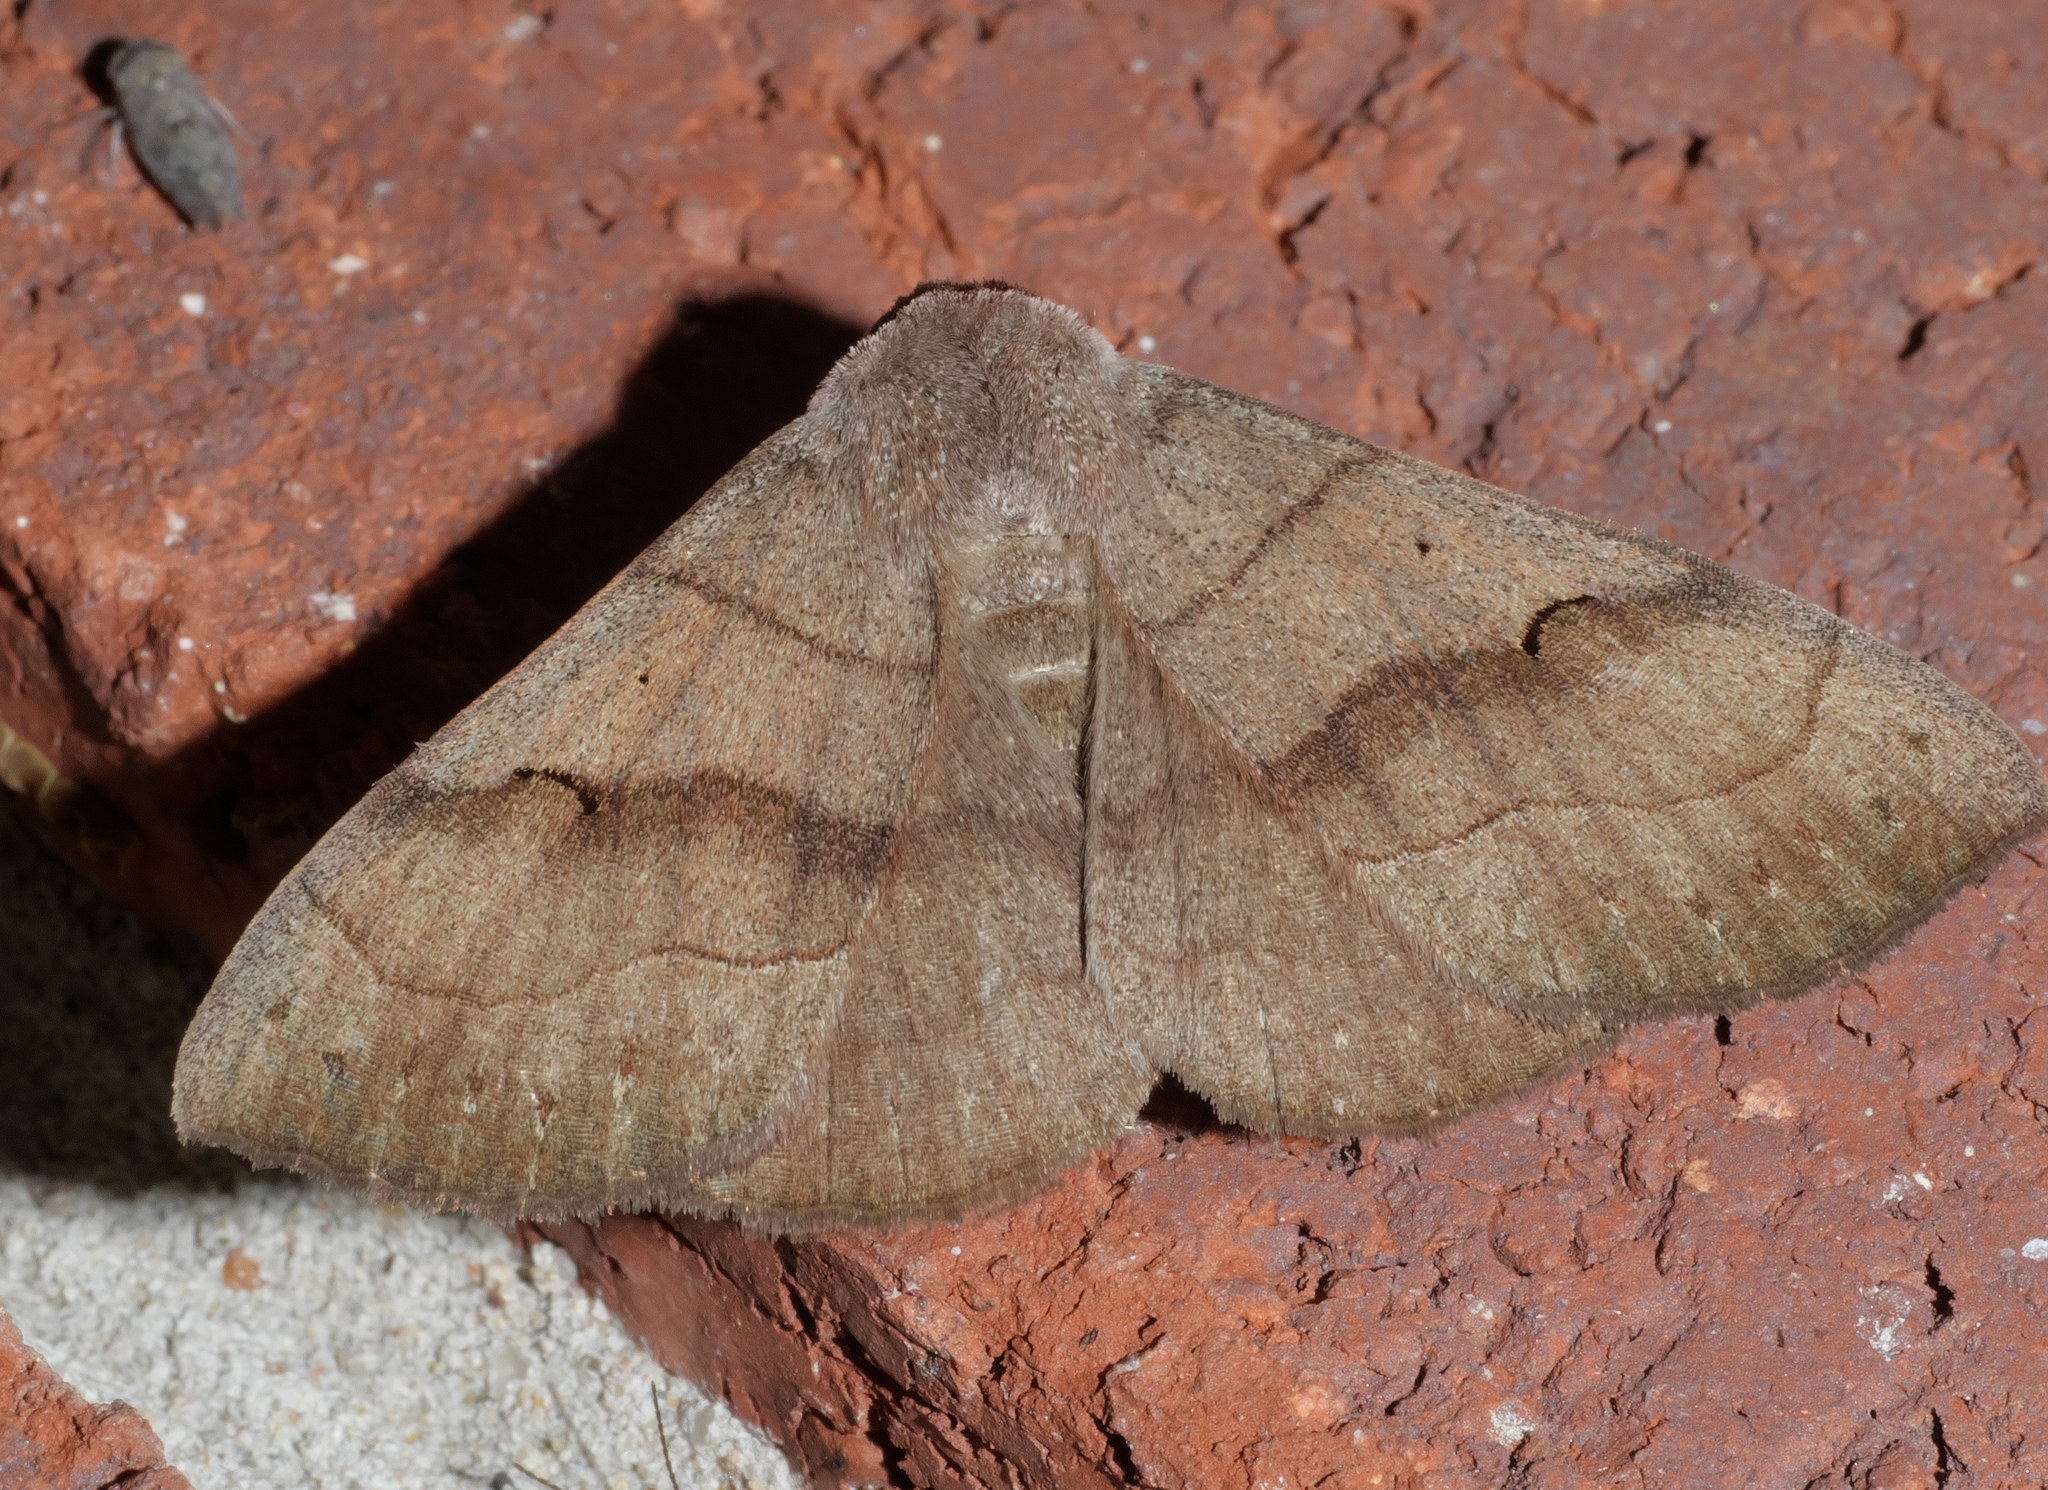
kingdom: Animalia
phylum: Arthropoda
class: Insecta
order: Lepidoptera
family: Erebidae
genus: Panopoda
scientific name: Panopoda carneicosta
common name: Brown panopoda moth
